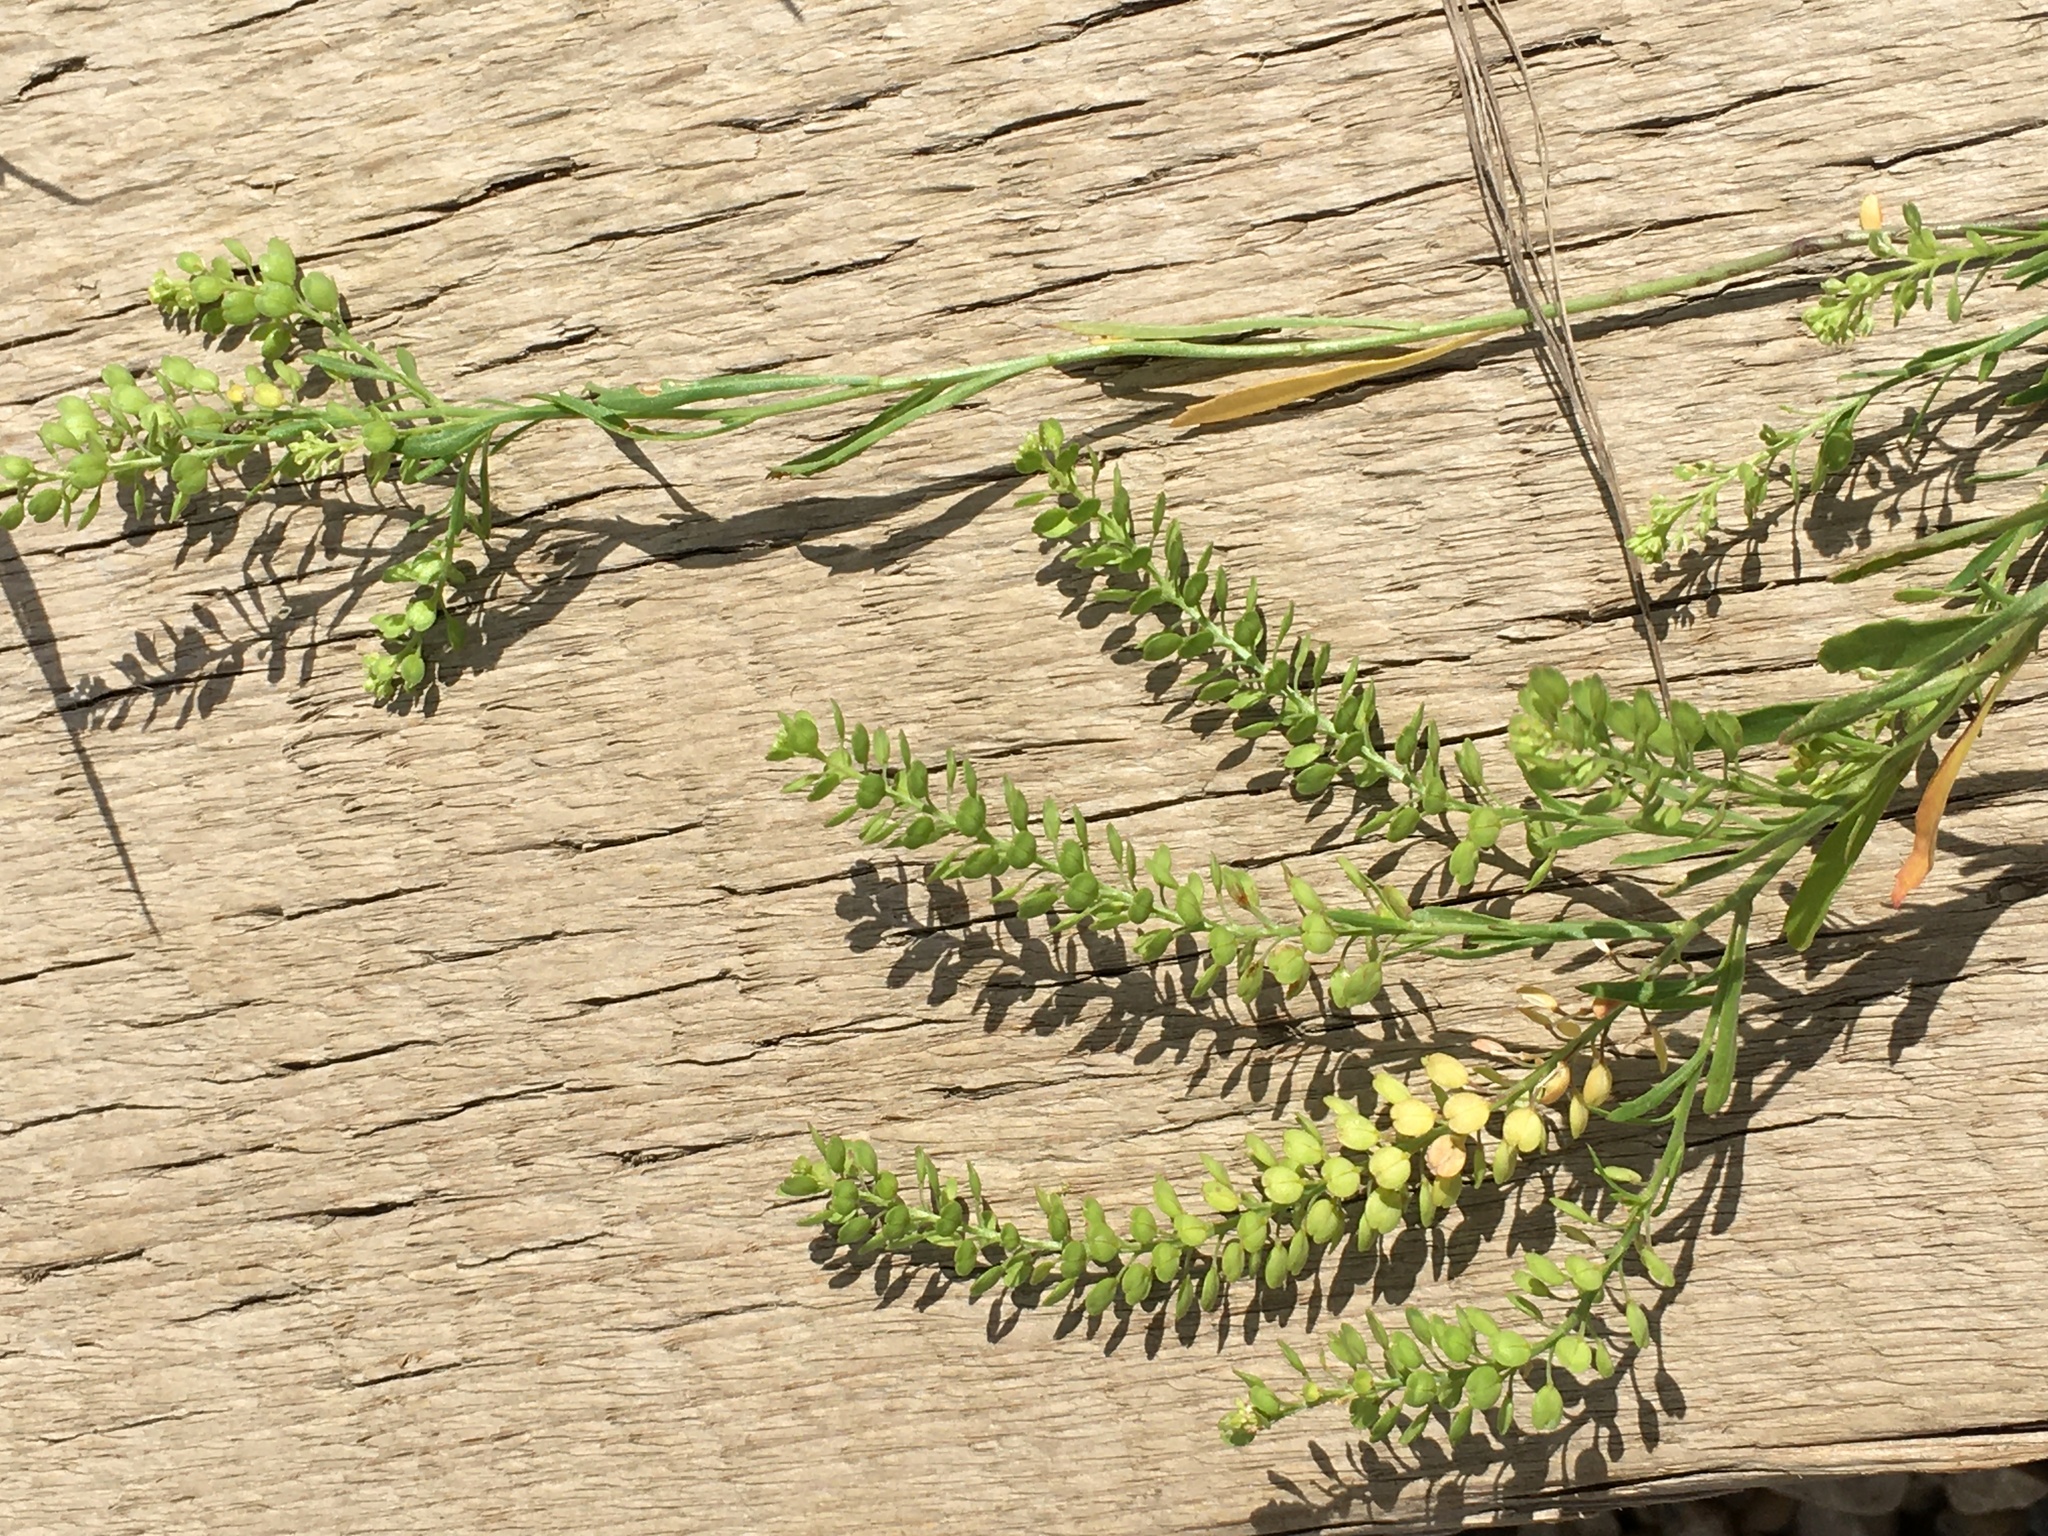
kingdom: Plantae
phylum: Tracheophyta
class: Magnoliopsida
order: Brassicales
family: Brassicaceae
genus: Lepidium
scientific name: Lepidium densiflorum
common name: Miner's pepperwort
